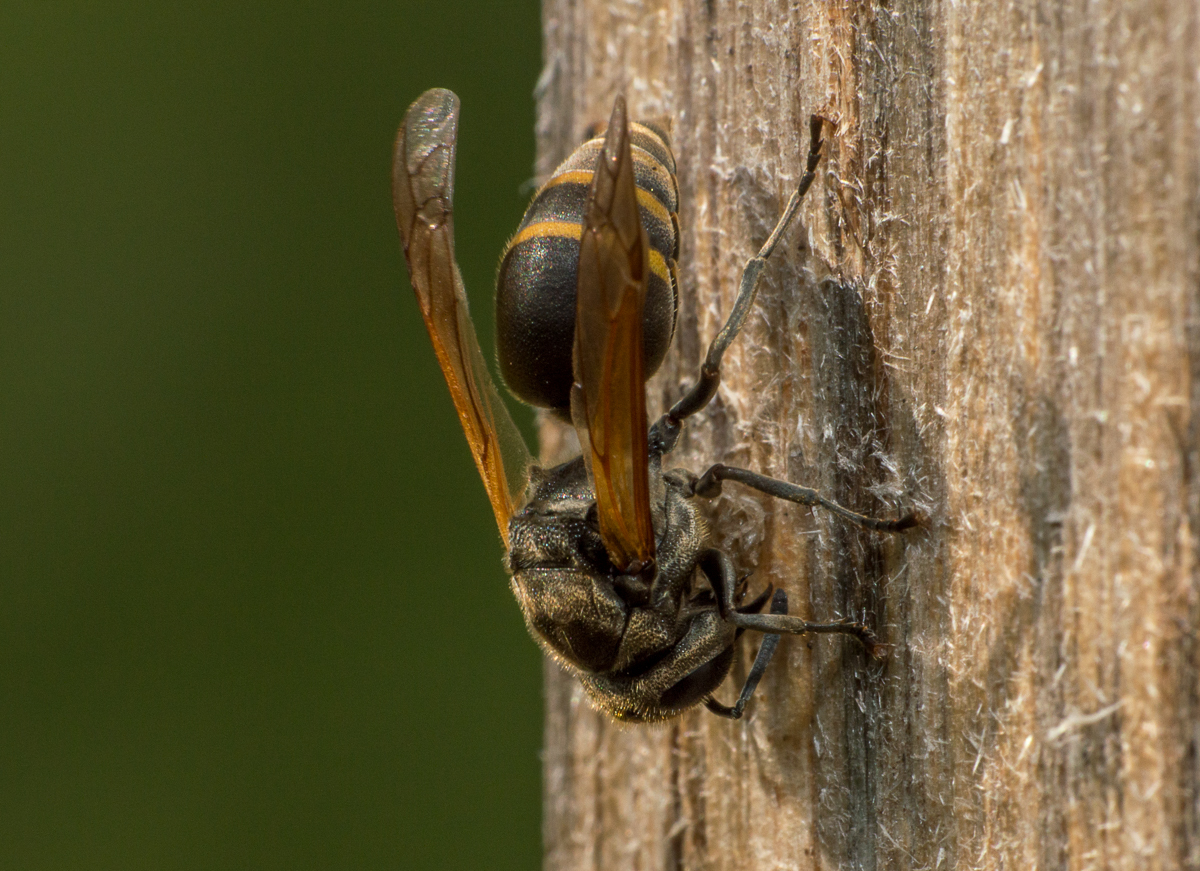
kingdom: Animalia
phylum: Arthropoda
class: Insecta
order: Hymenoptera
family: Vespidae
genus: Brachygastra
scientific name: Brachygastra lecheguana
